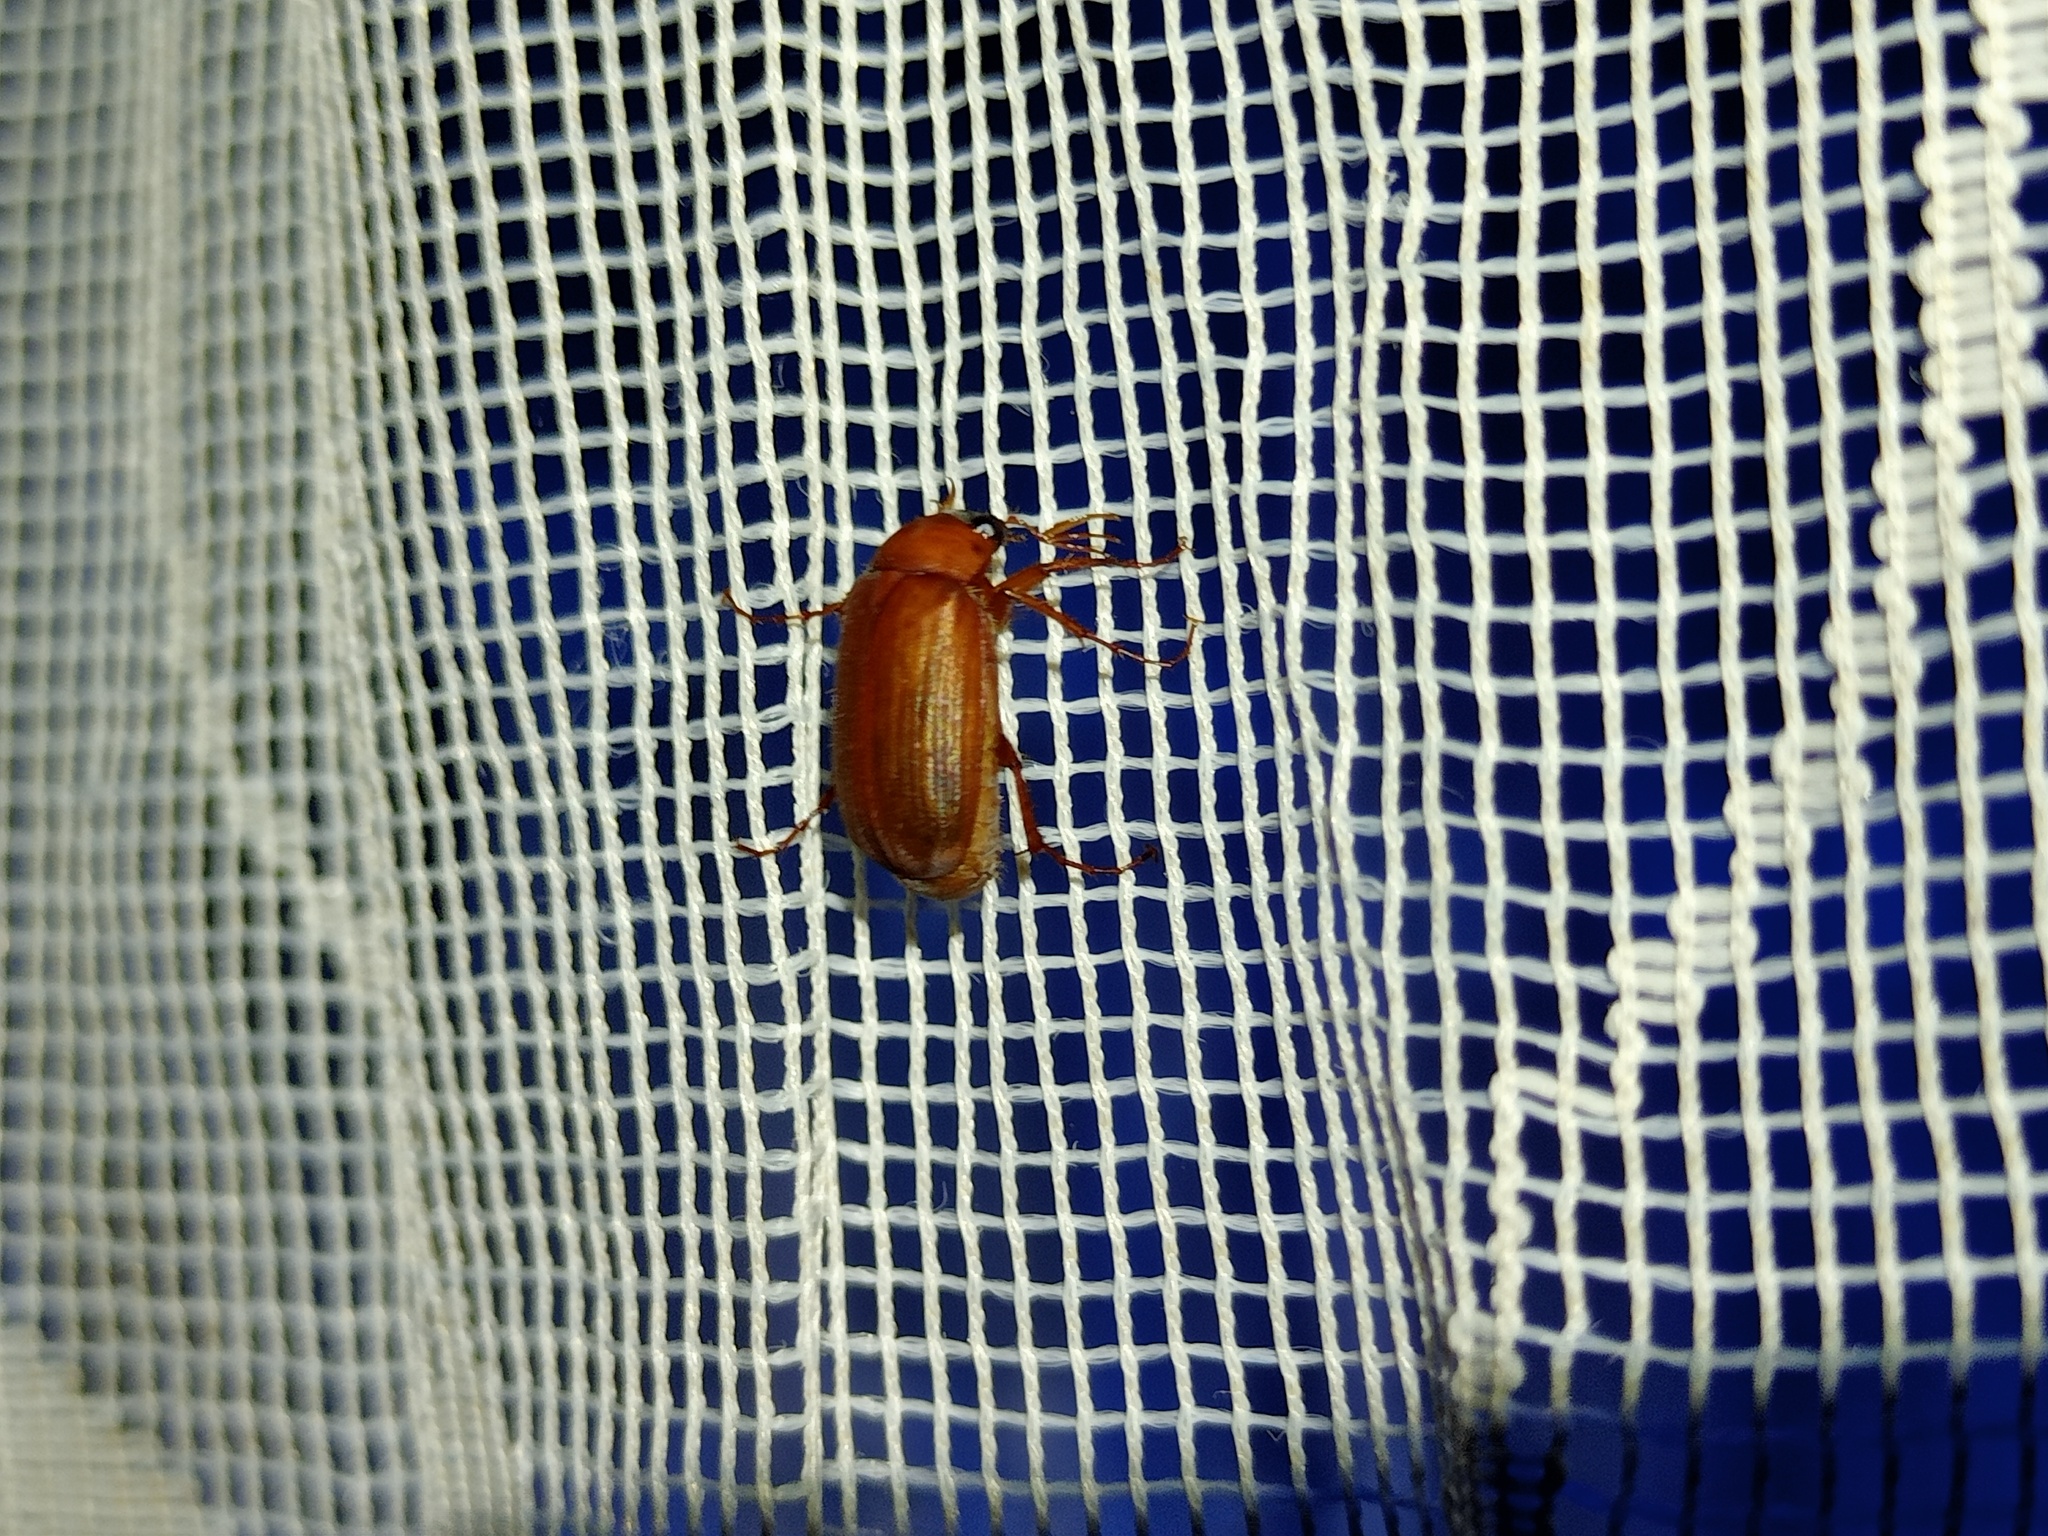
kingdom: Animalia
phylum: Arthropoda
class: Insecta
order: Coleoptera
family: Scarabaeidae
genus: Serica
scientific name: Serica brunnea
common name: Brown chafer
